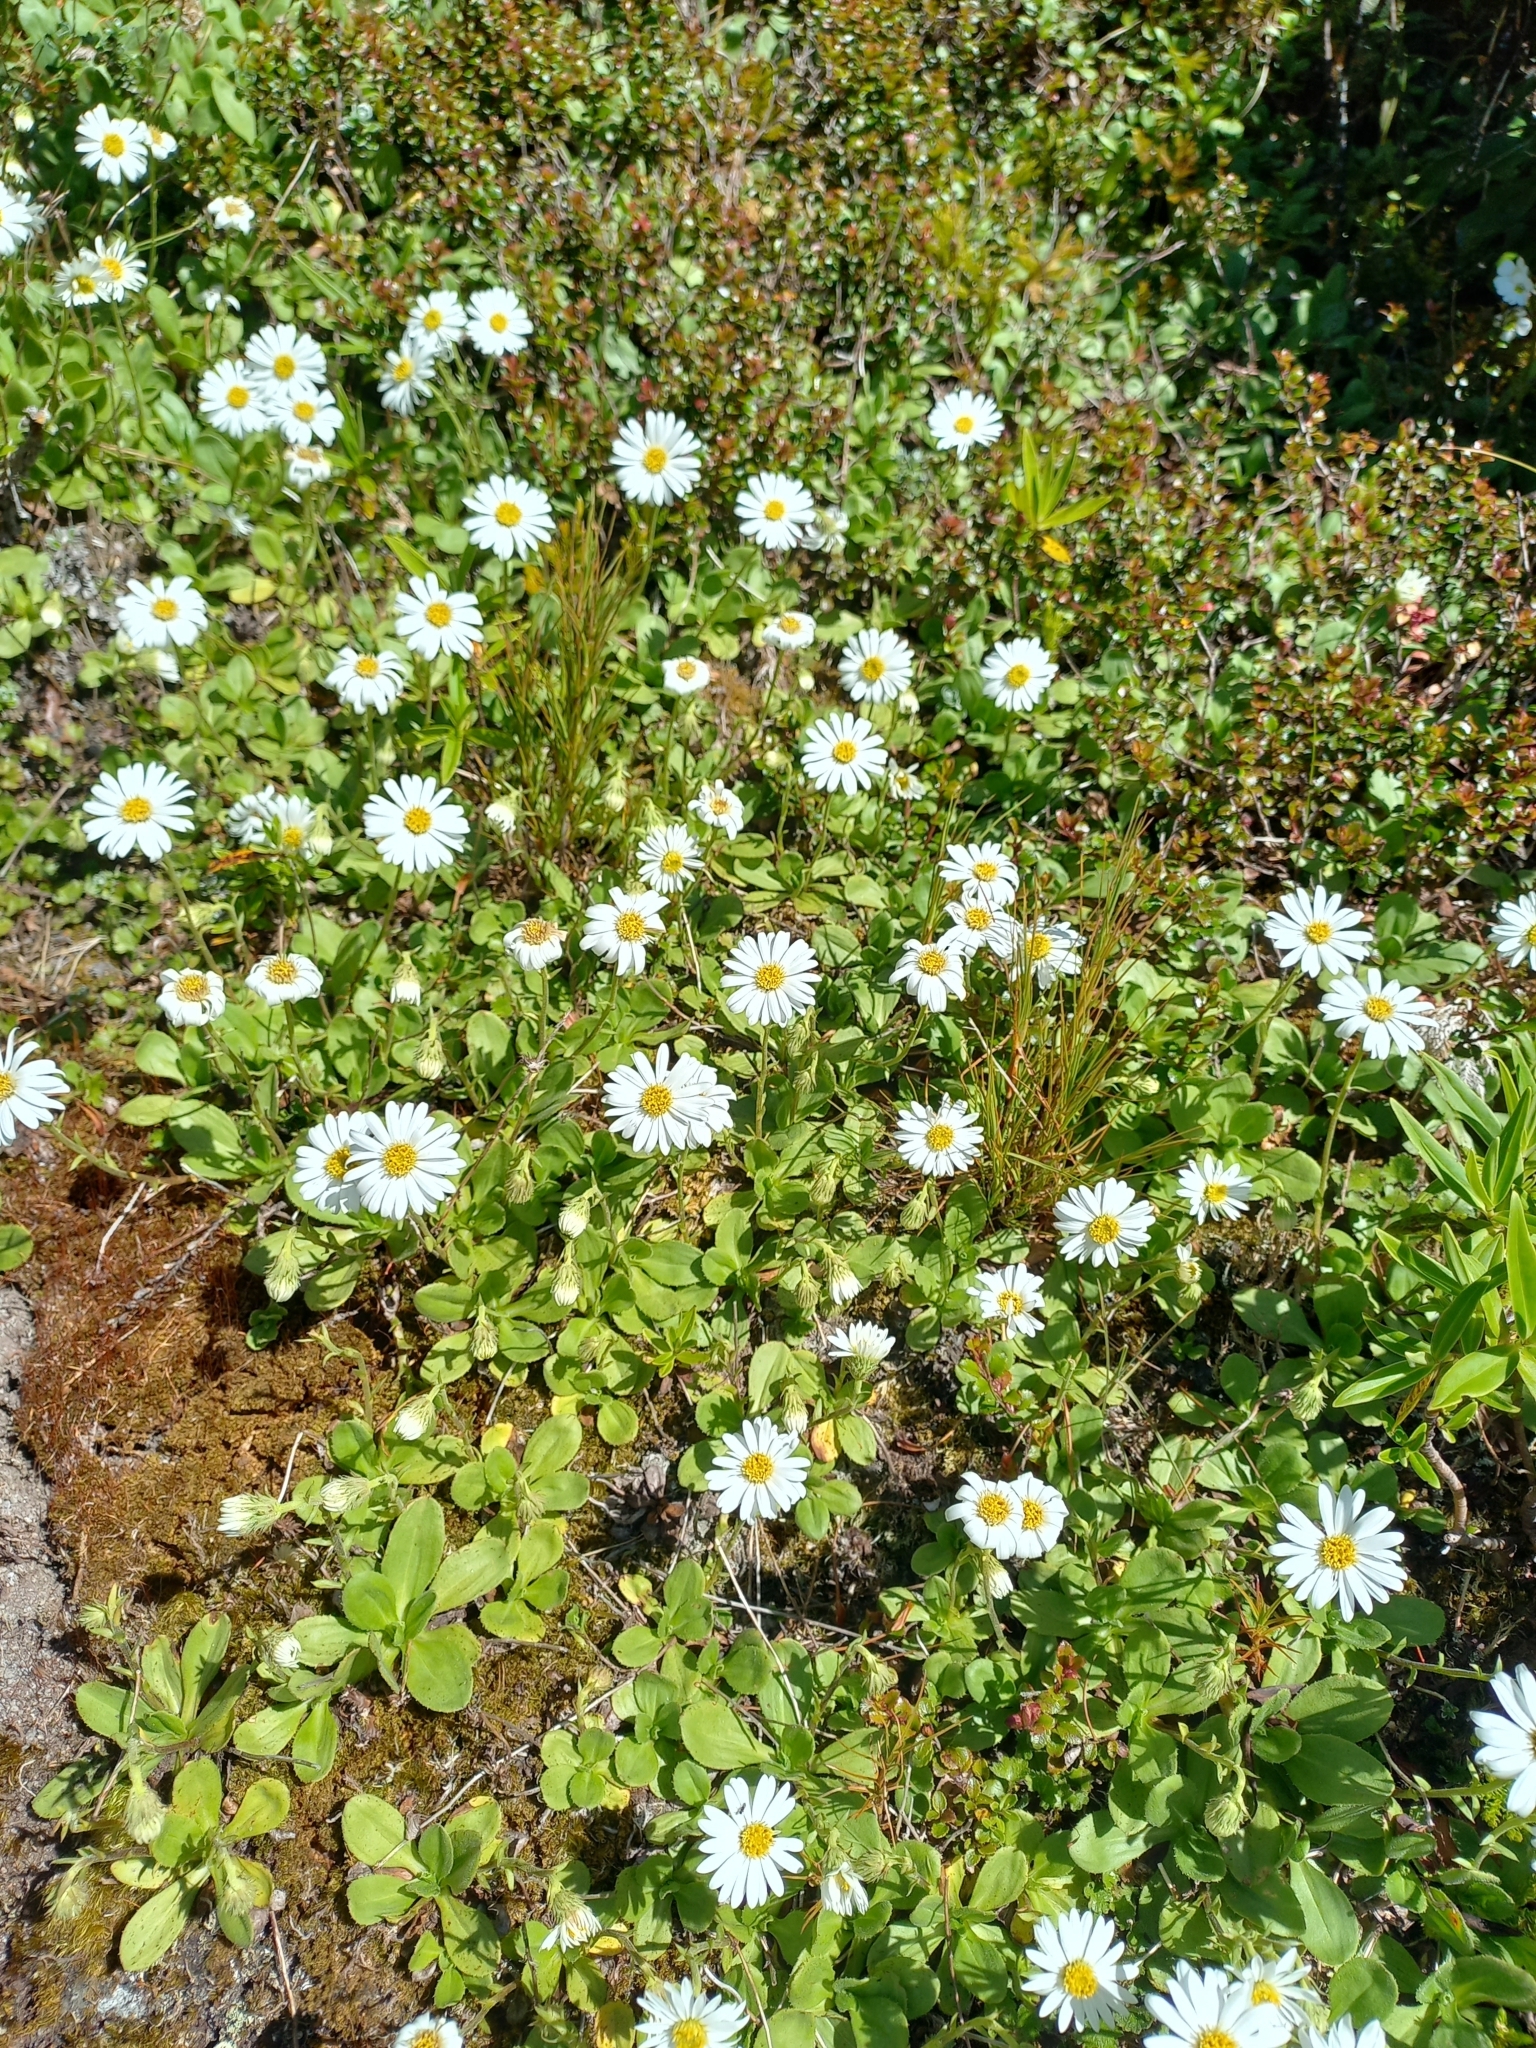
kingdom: Plantae
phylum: Tracheophyta
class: Magnoliopsida
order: Asterales
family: Asteraceae
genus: Celmisia
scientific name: Celmisia glandulosa
